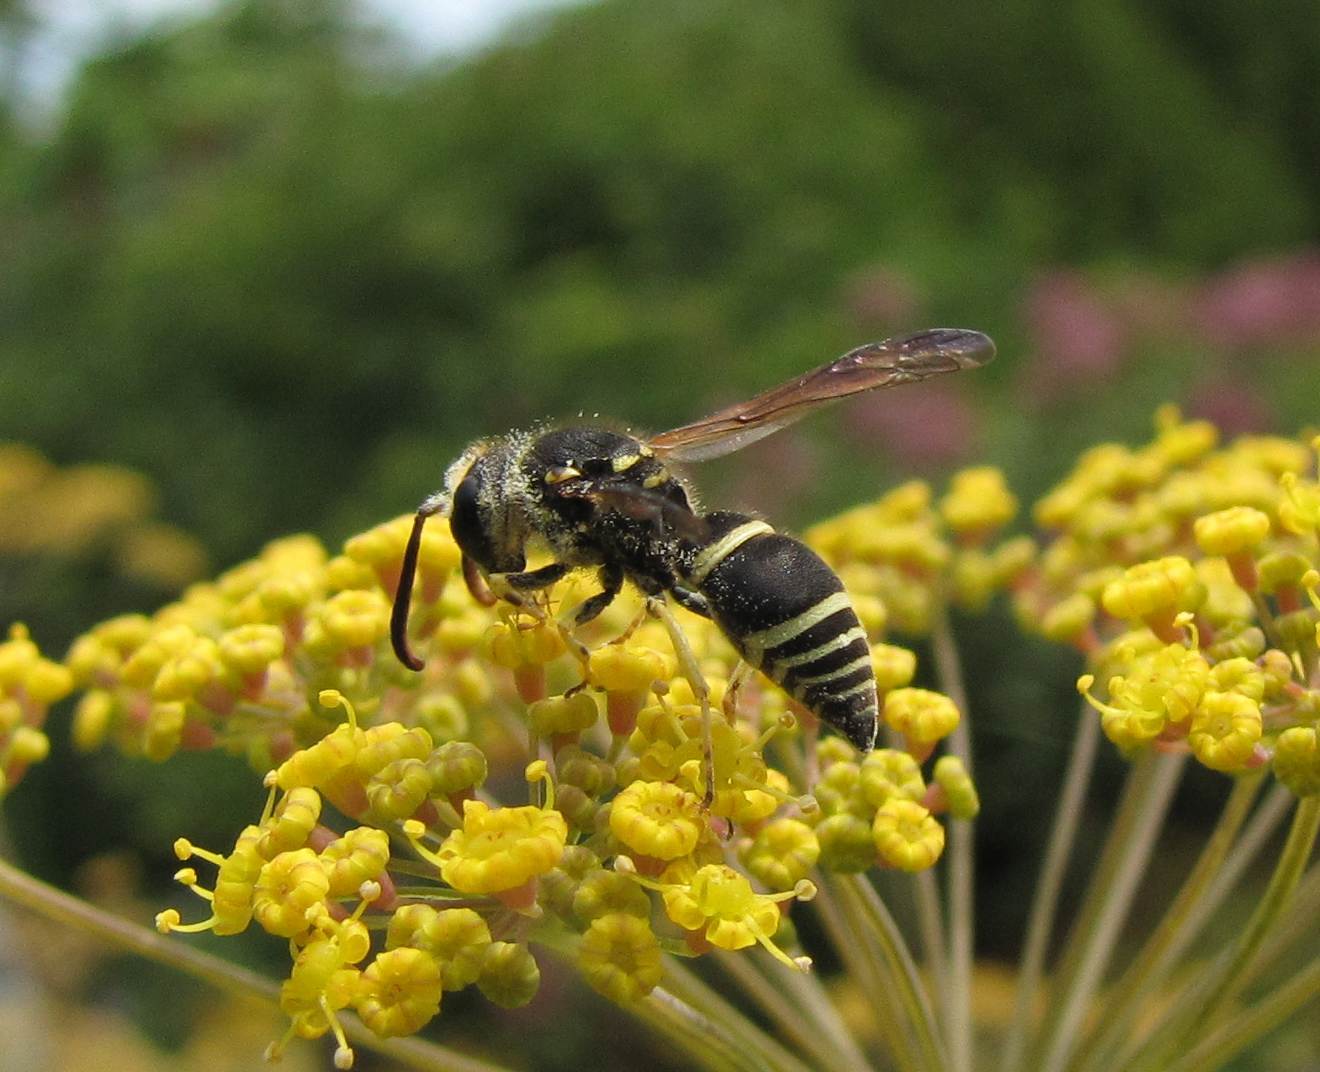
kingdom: Animalia
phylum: Arthropoda
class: Insecta
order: Hymenoptera
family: Vespidae
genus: Ancistrocerus
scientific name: Ancistrocerus catskill
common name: Vespid wasp
